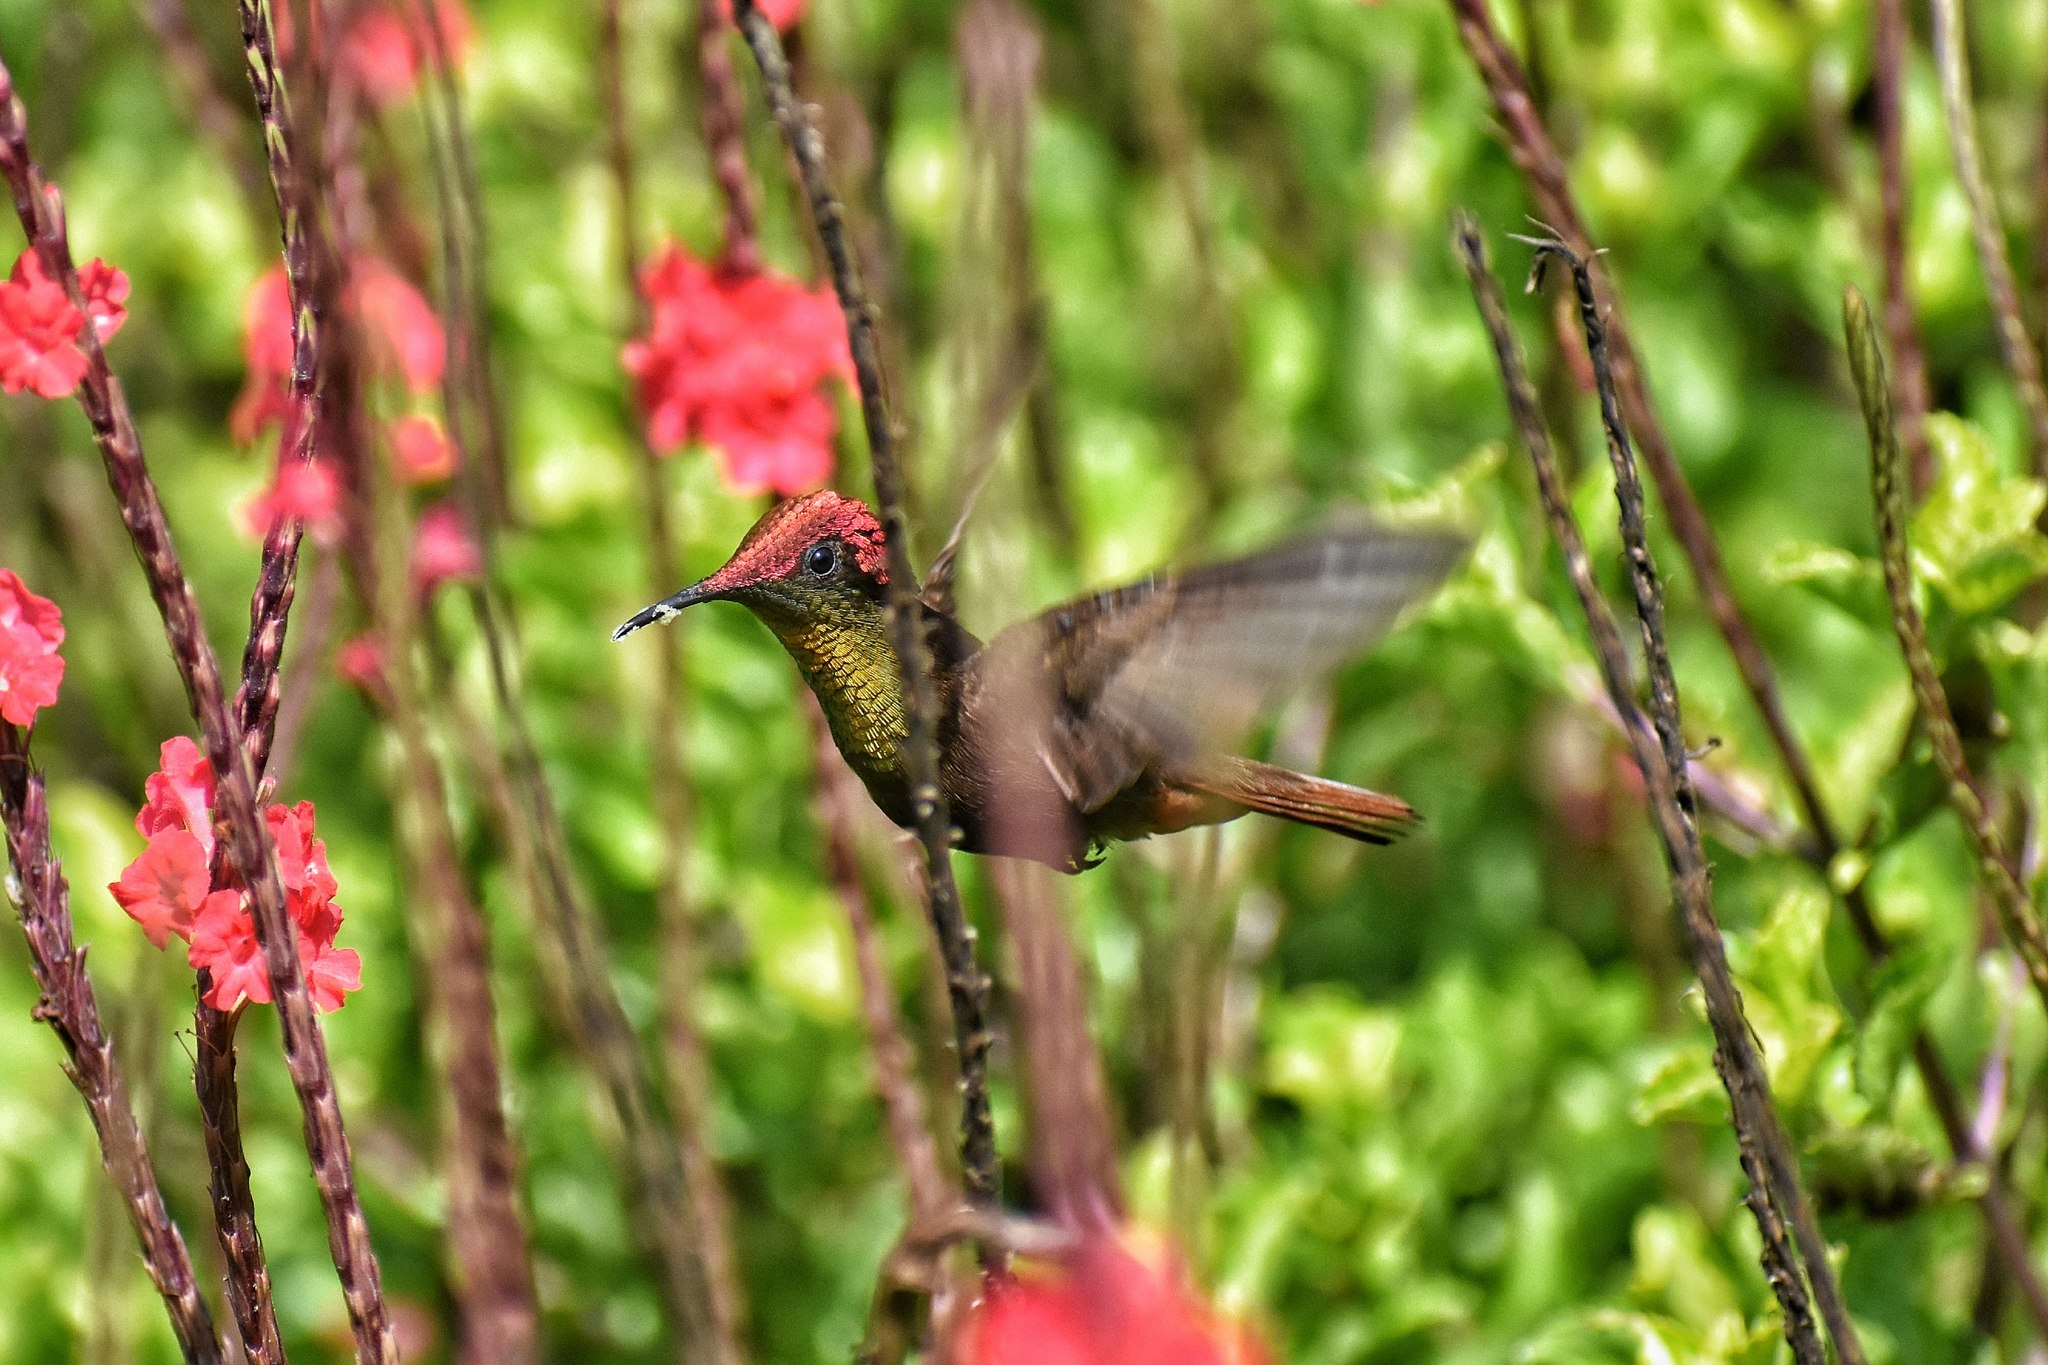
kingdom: Animalia
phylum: Chordata
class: Aves
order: Apodiformes
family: Trochilidae
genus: Chrysolampis
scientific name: Chrysolampis mosquitus
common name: Ruby-topaz hummingbird
